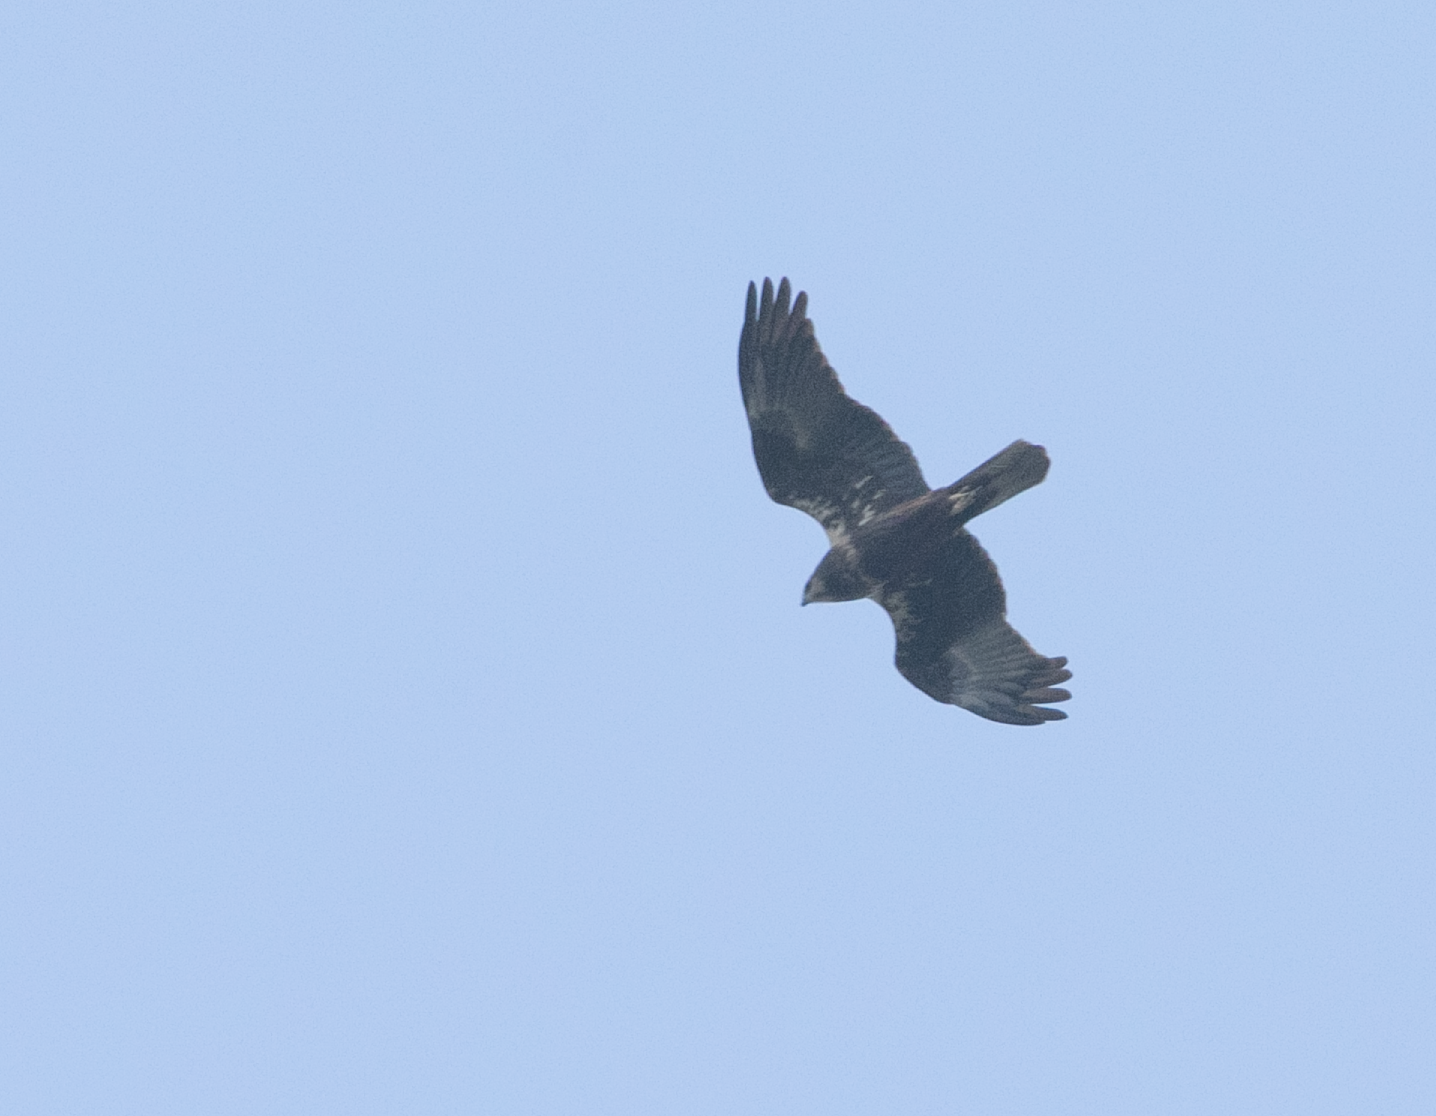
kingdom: Animalia
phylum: Chordata
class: Aves
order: Accipitriformes
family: Accipitridae
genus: Circus
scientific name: Circus aeruginosus
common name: Western marsh harrier
